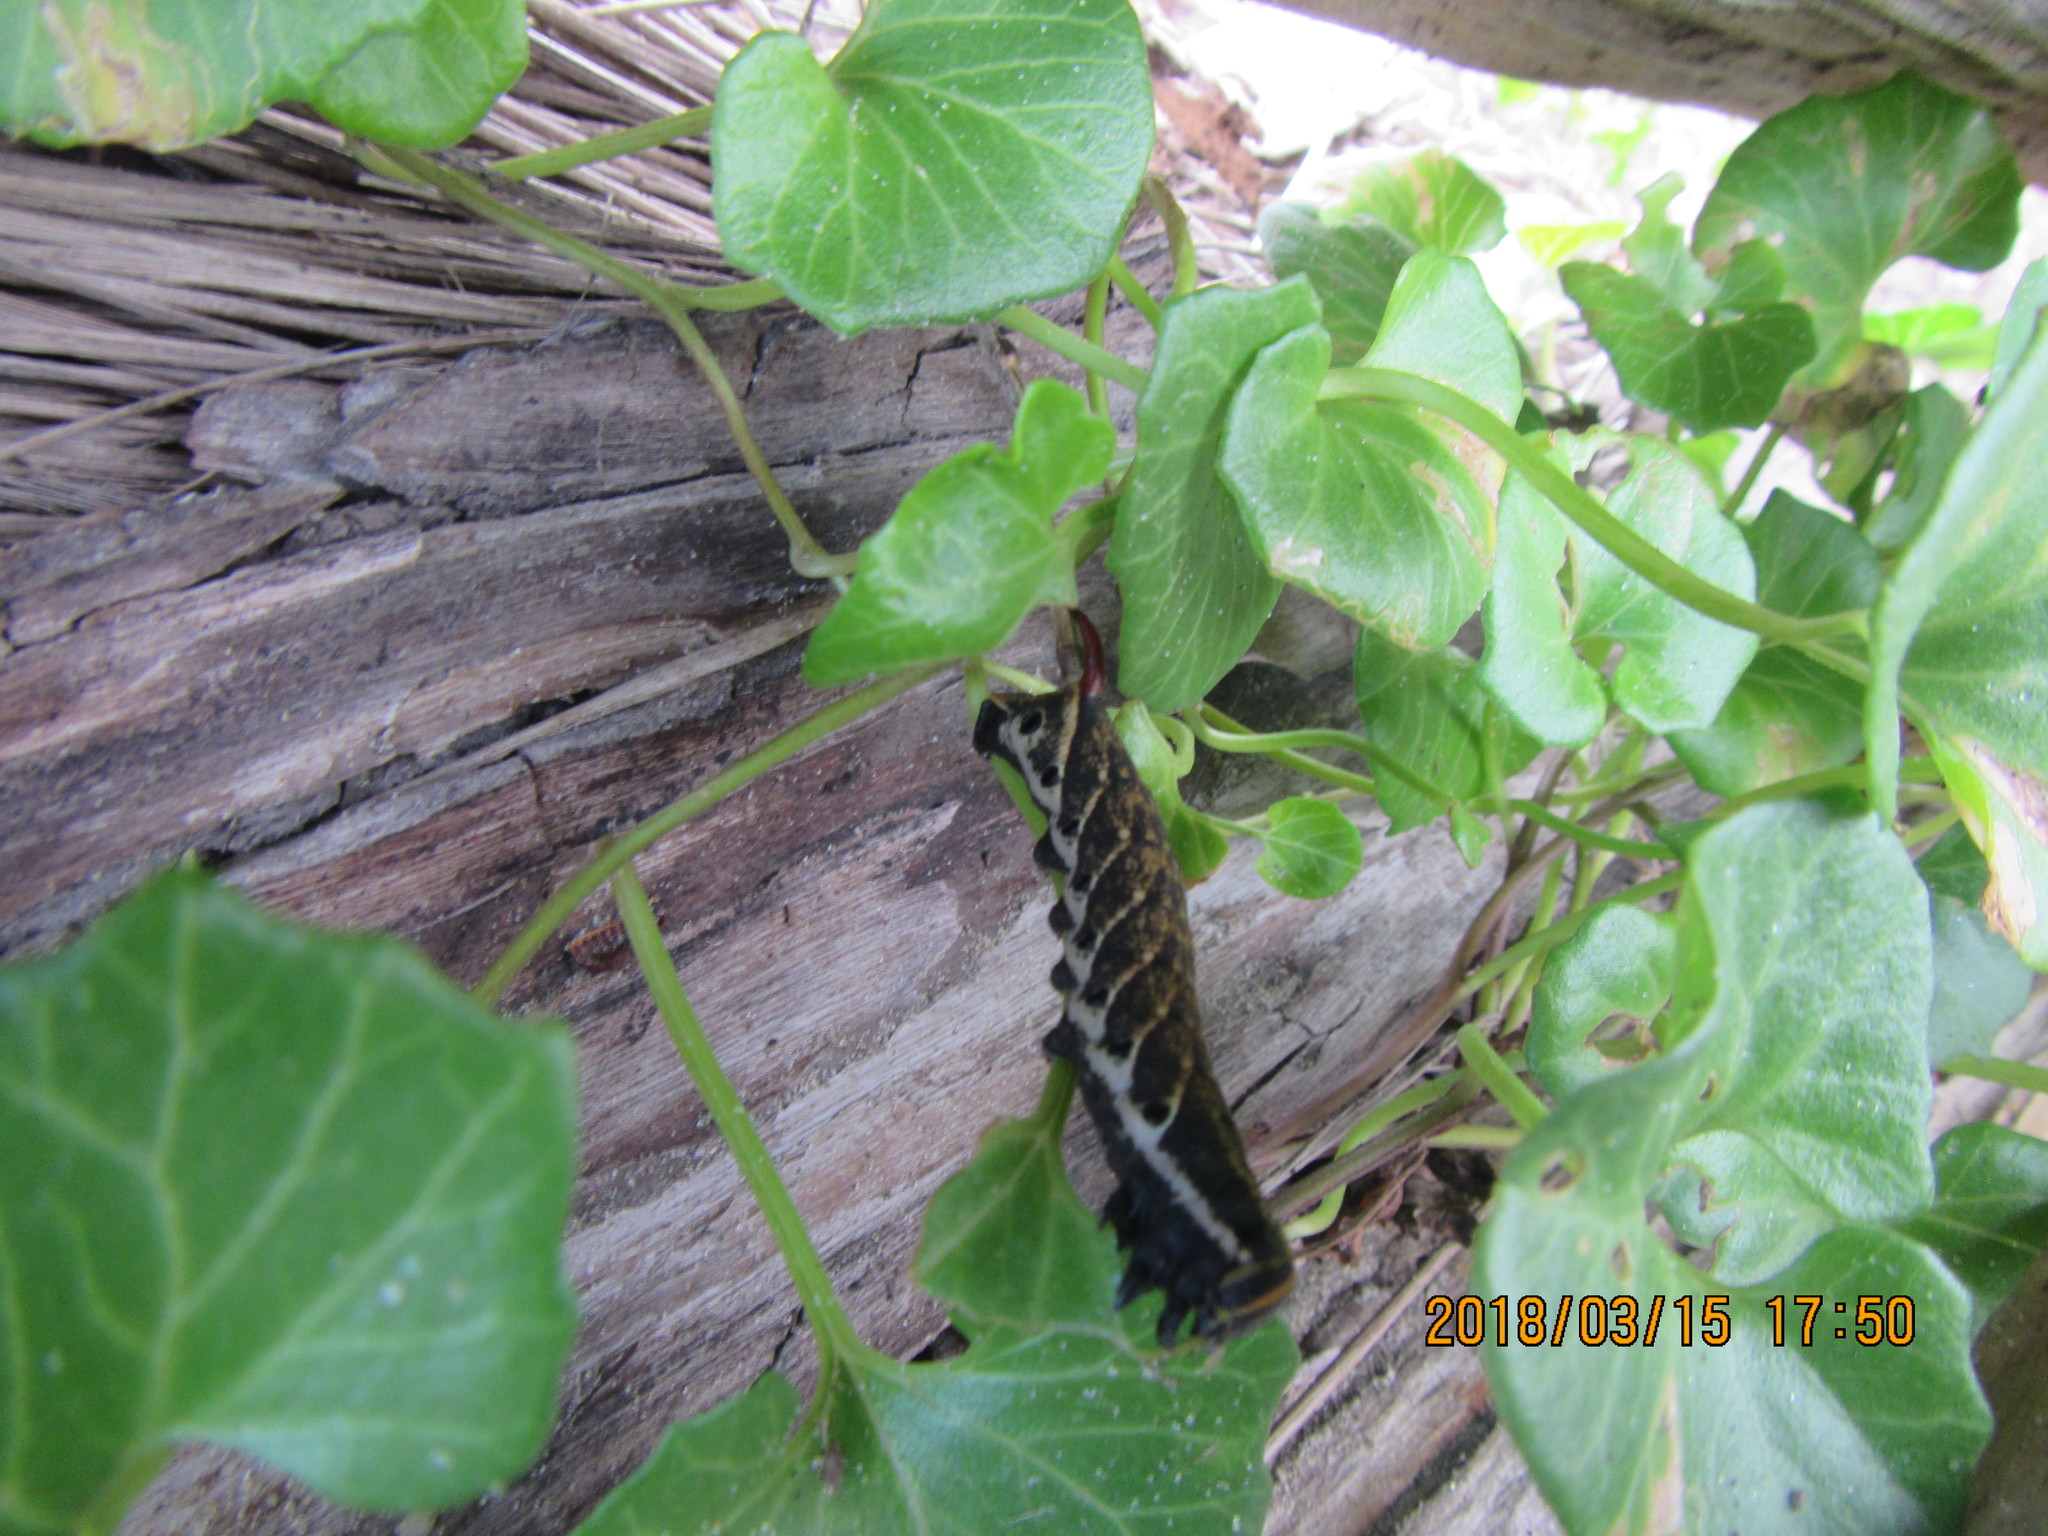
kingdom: Plantae
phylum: Tracheophyta
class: Magnoliopsida
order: Solanales
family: Convolvulaceae
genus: Calystegia
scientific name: Calystegia soldanella
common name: Sea bindweed
